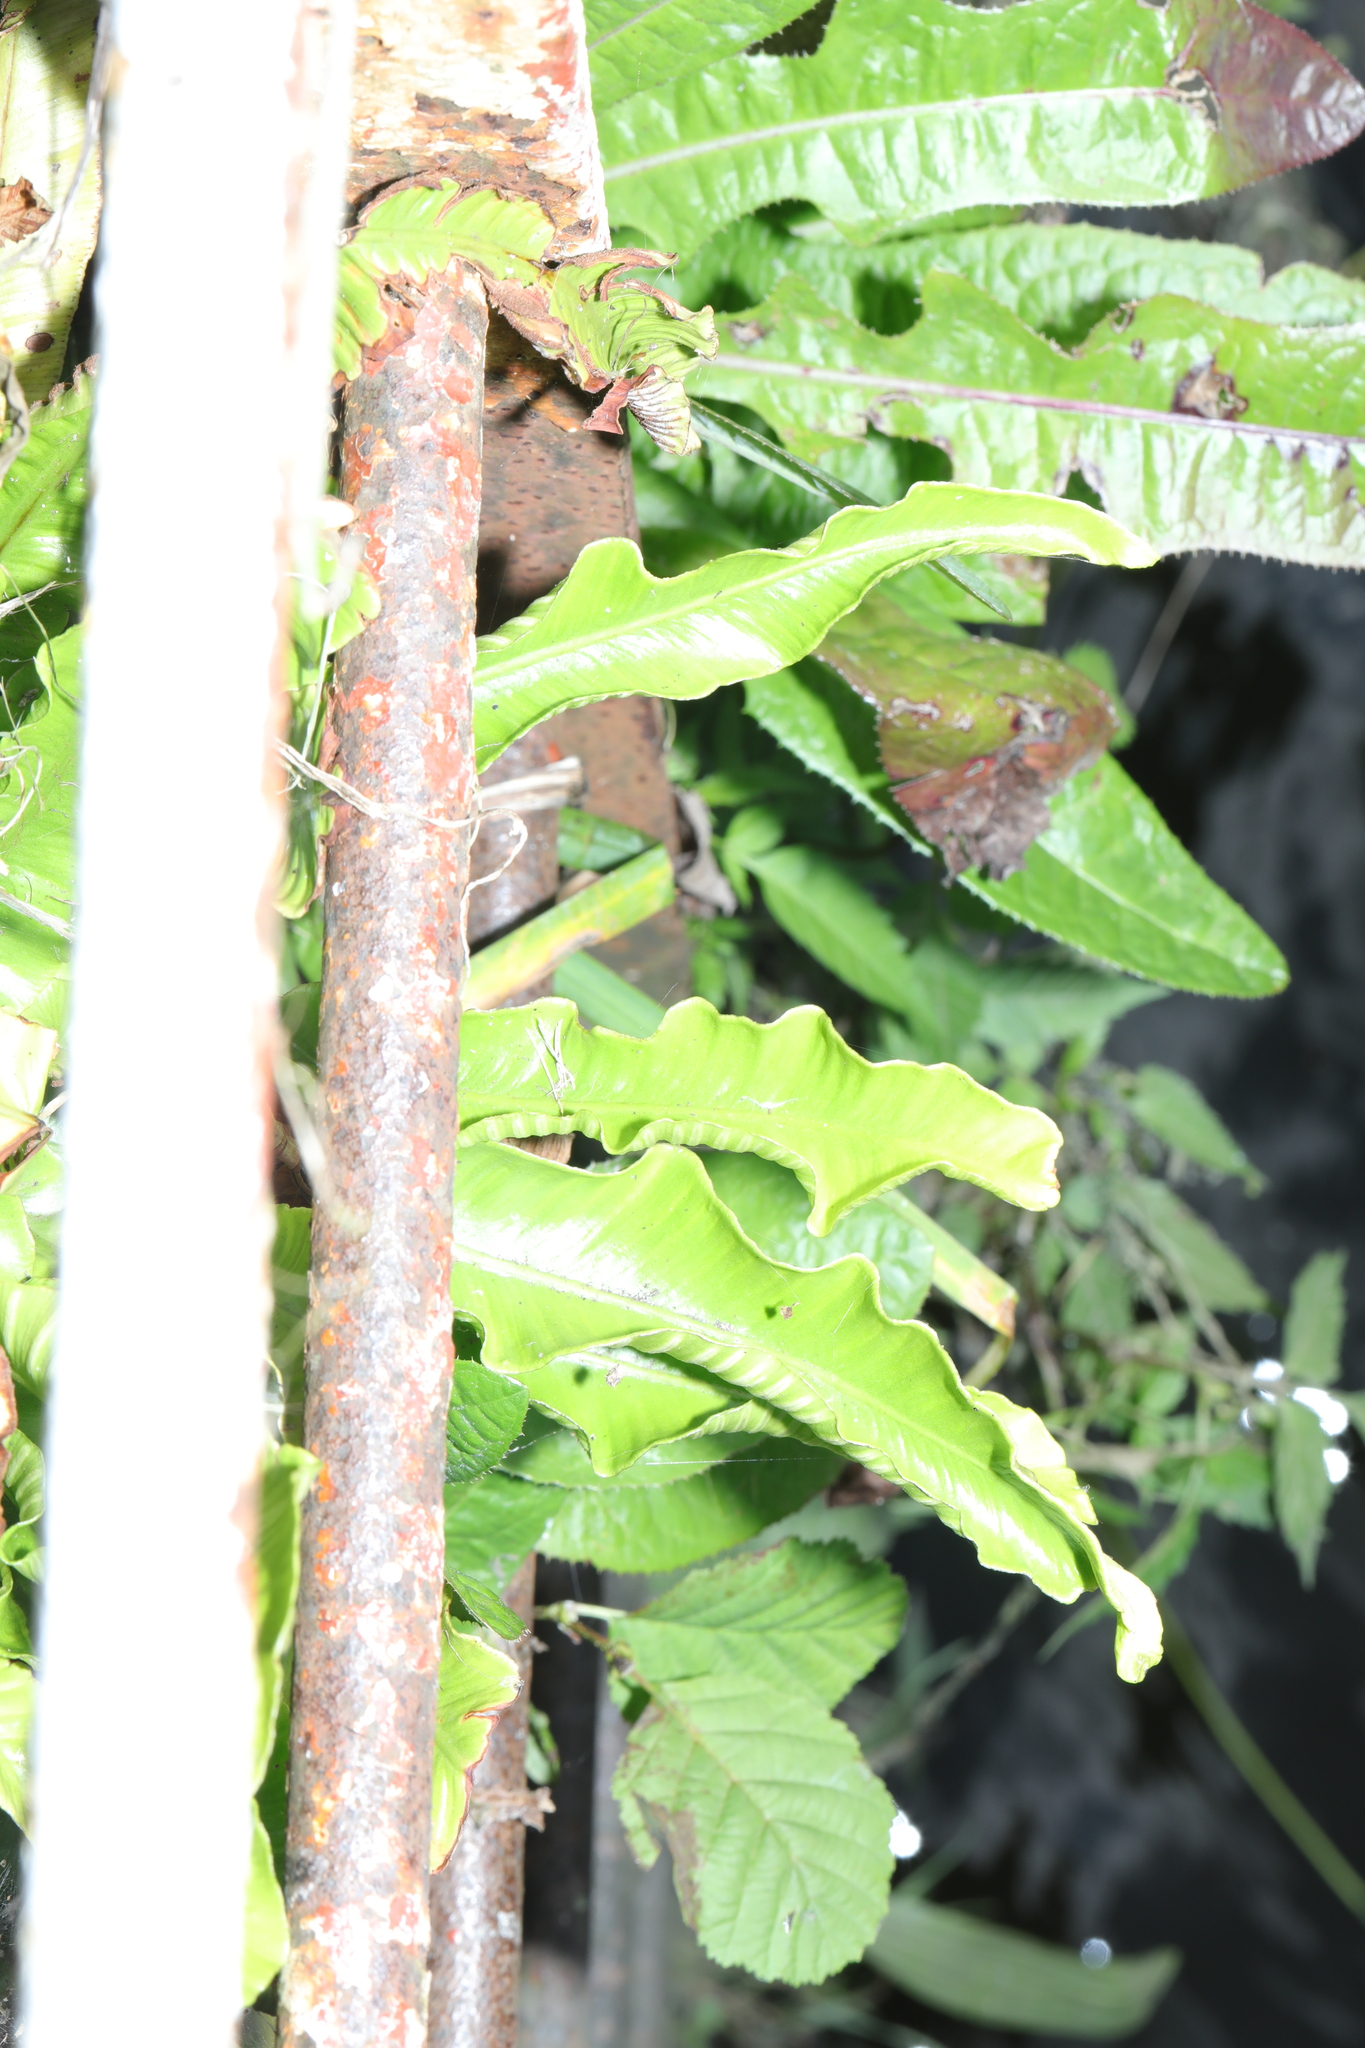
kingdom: Plantae
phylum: Tracheophyta
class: Polypodiopsida
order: Polypodiales
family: Aspleniaceae
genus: Asplenium
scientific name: Asplenium scolopendrium
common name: Hart's-tongue fern
